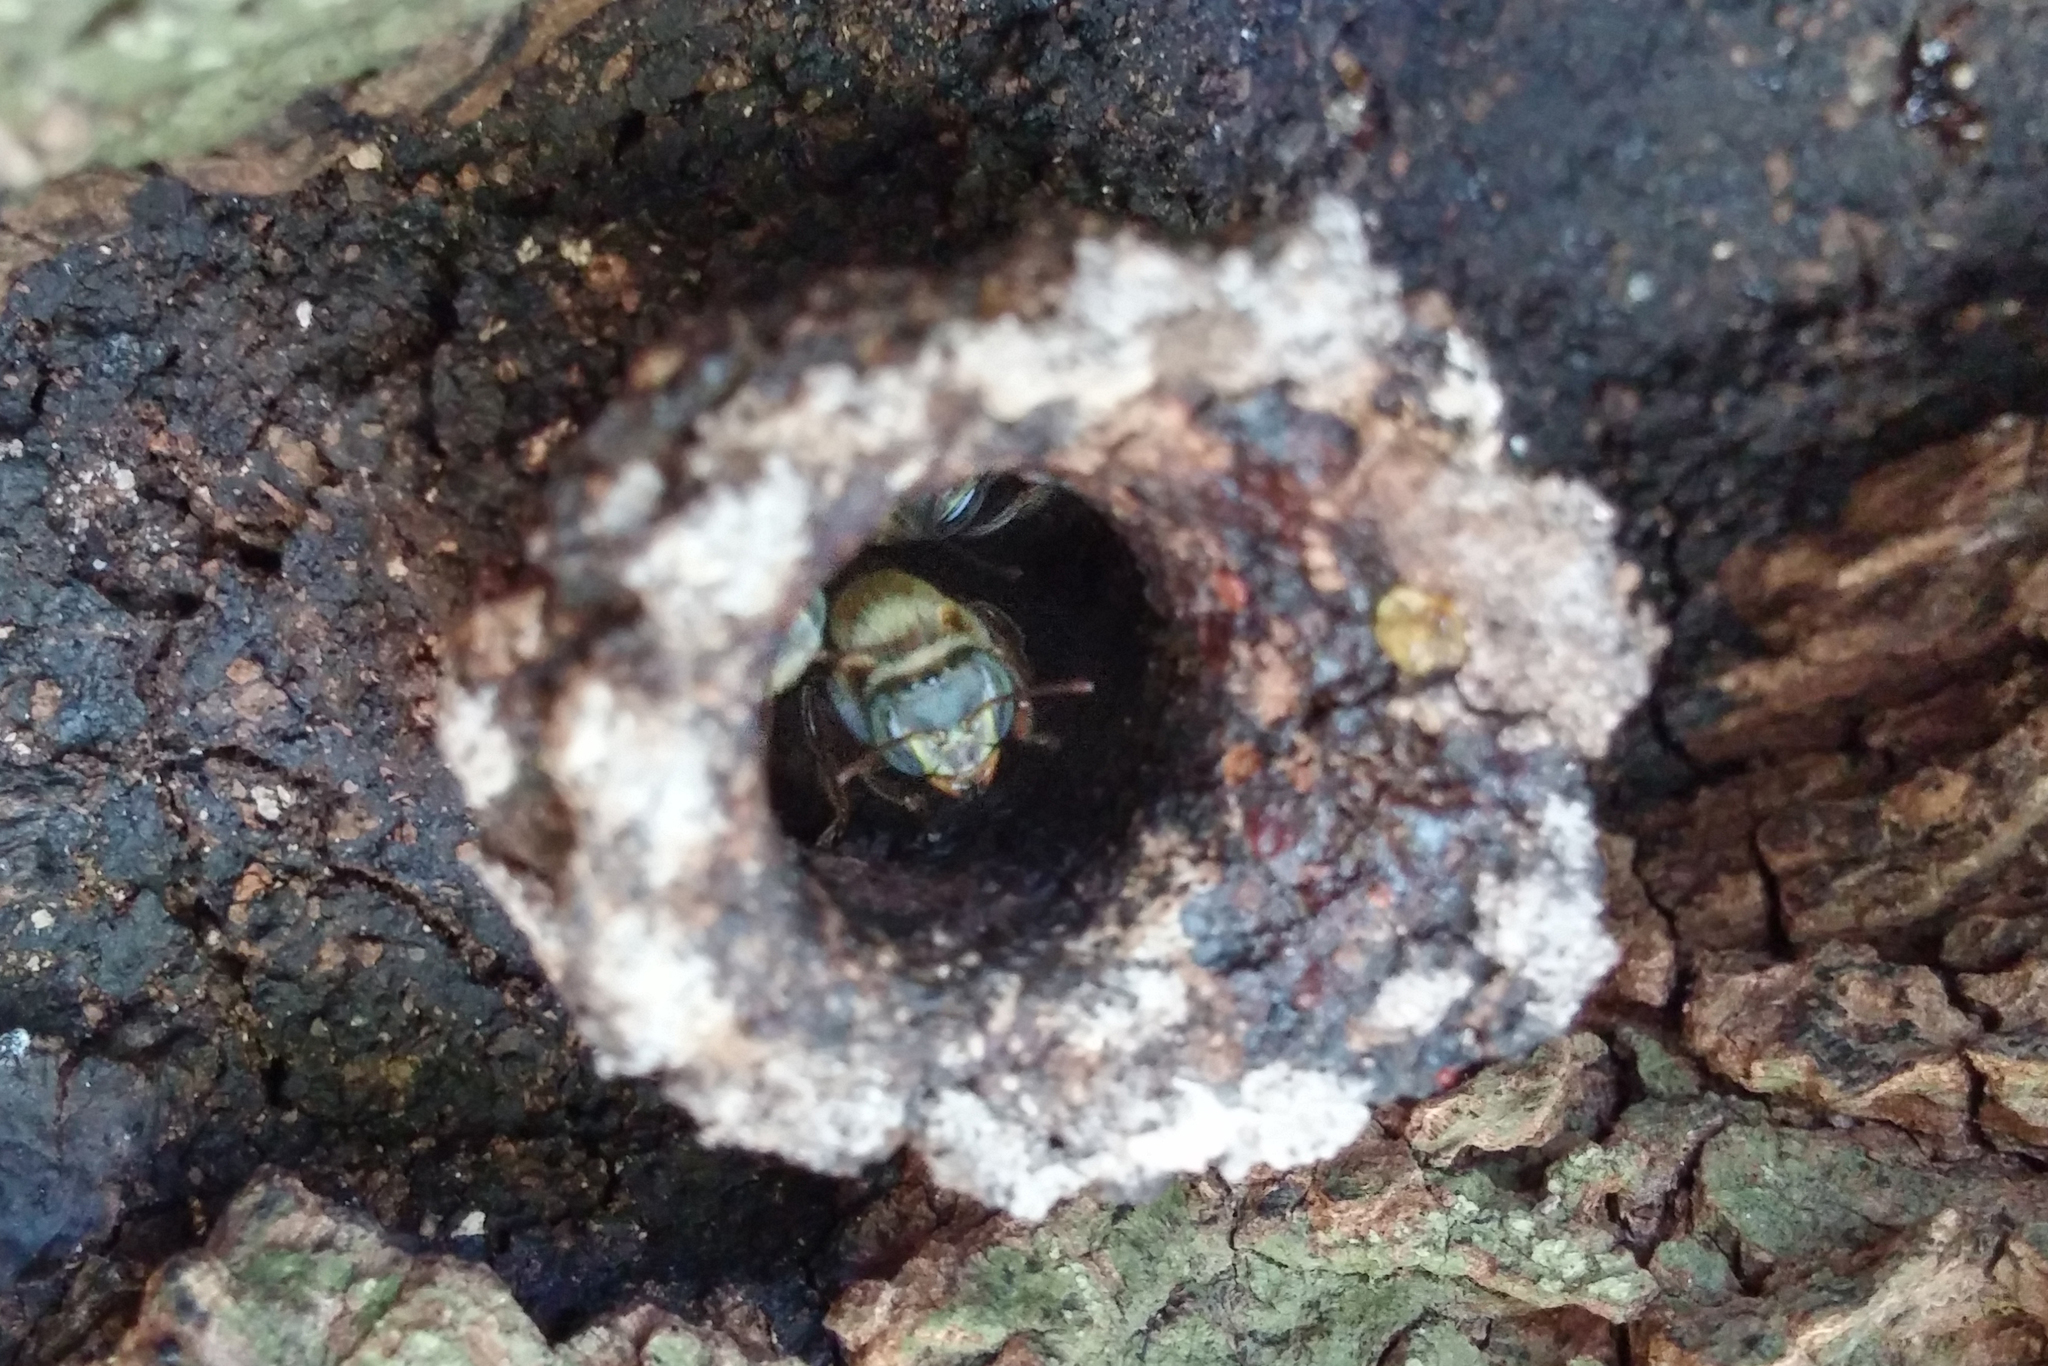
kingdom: Animalia
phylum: Arthropoda
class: Insecta
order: Hymenoptera
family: Apidae
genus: Melipona
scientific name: Melipona beecheii
